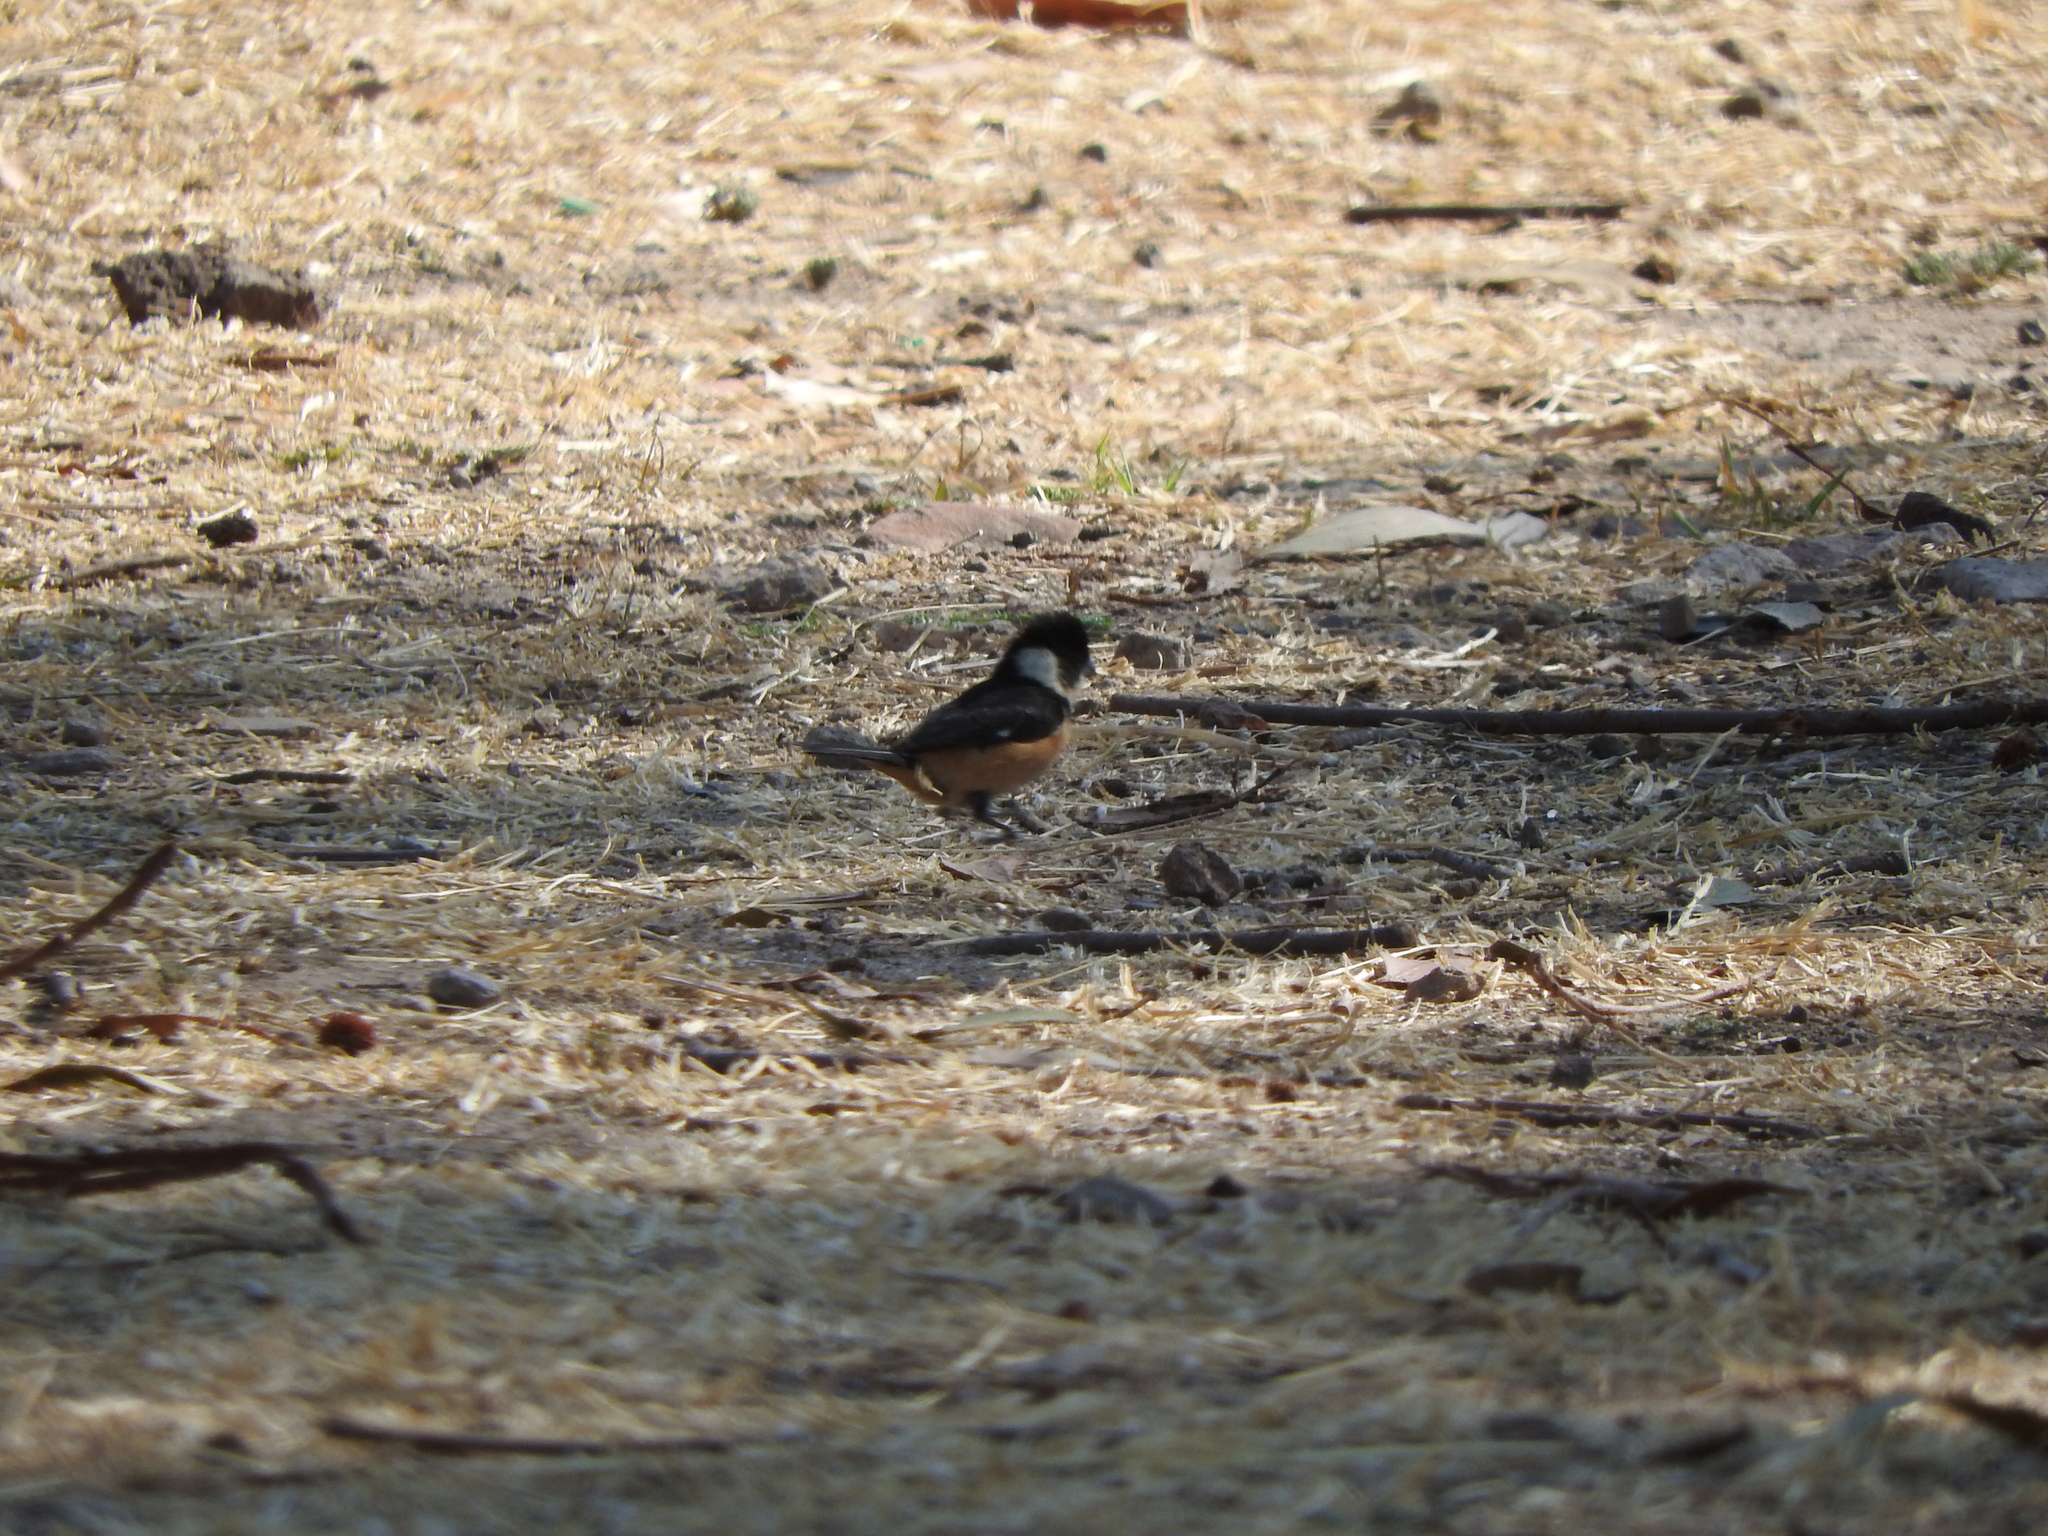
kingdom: Animalia
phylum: Chordata
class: Aves
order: Passeriformes
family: Thraupidae
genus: Sporophila
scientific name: Sporophila torqueola
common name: White-collared seedeater
